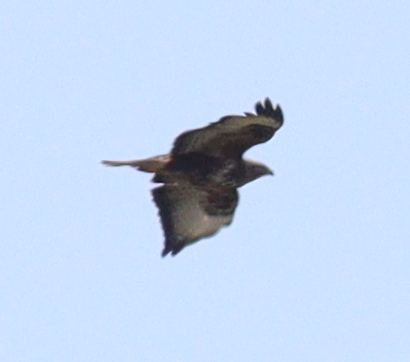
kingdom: Animalia
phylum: Chordata
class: Aves
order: Accipitriformes
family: Accipitridae
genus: Buteo
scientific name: Buteo buteo
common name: Common buzzard
